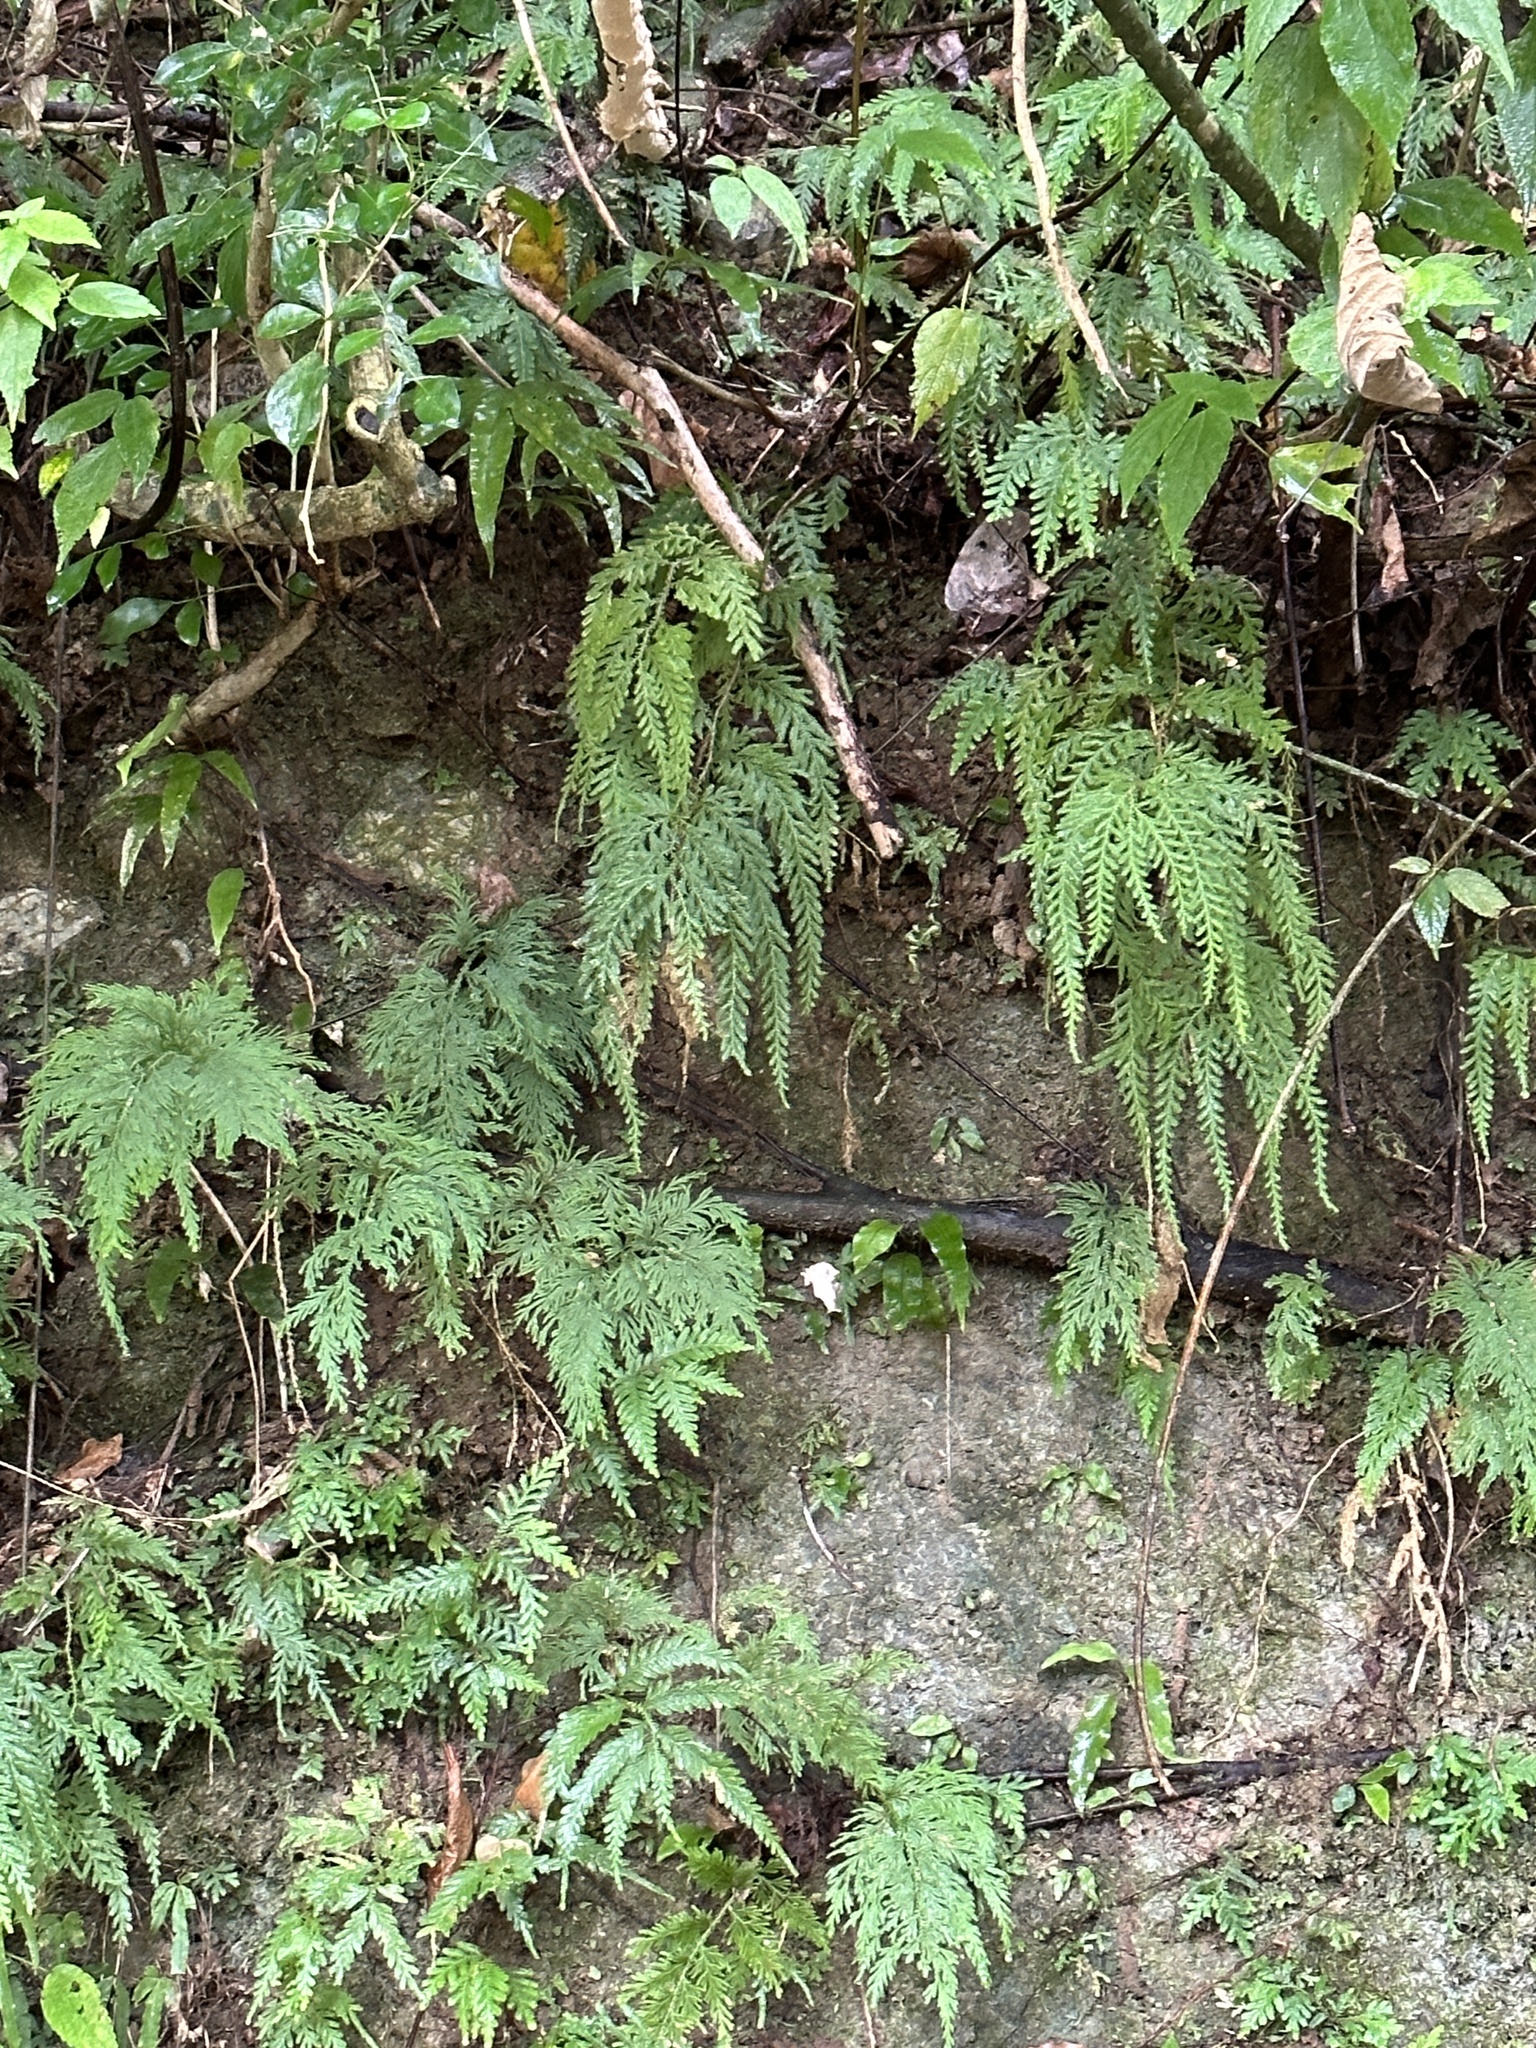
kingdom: Plantae
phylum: Tracheophyta
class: Lycopodiopsida
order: Selaginellales
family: Selaginellaceae
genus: Selaginella
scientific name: Selaginella delicatula
